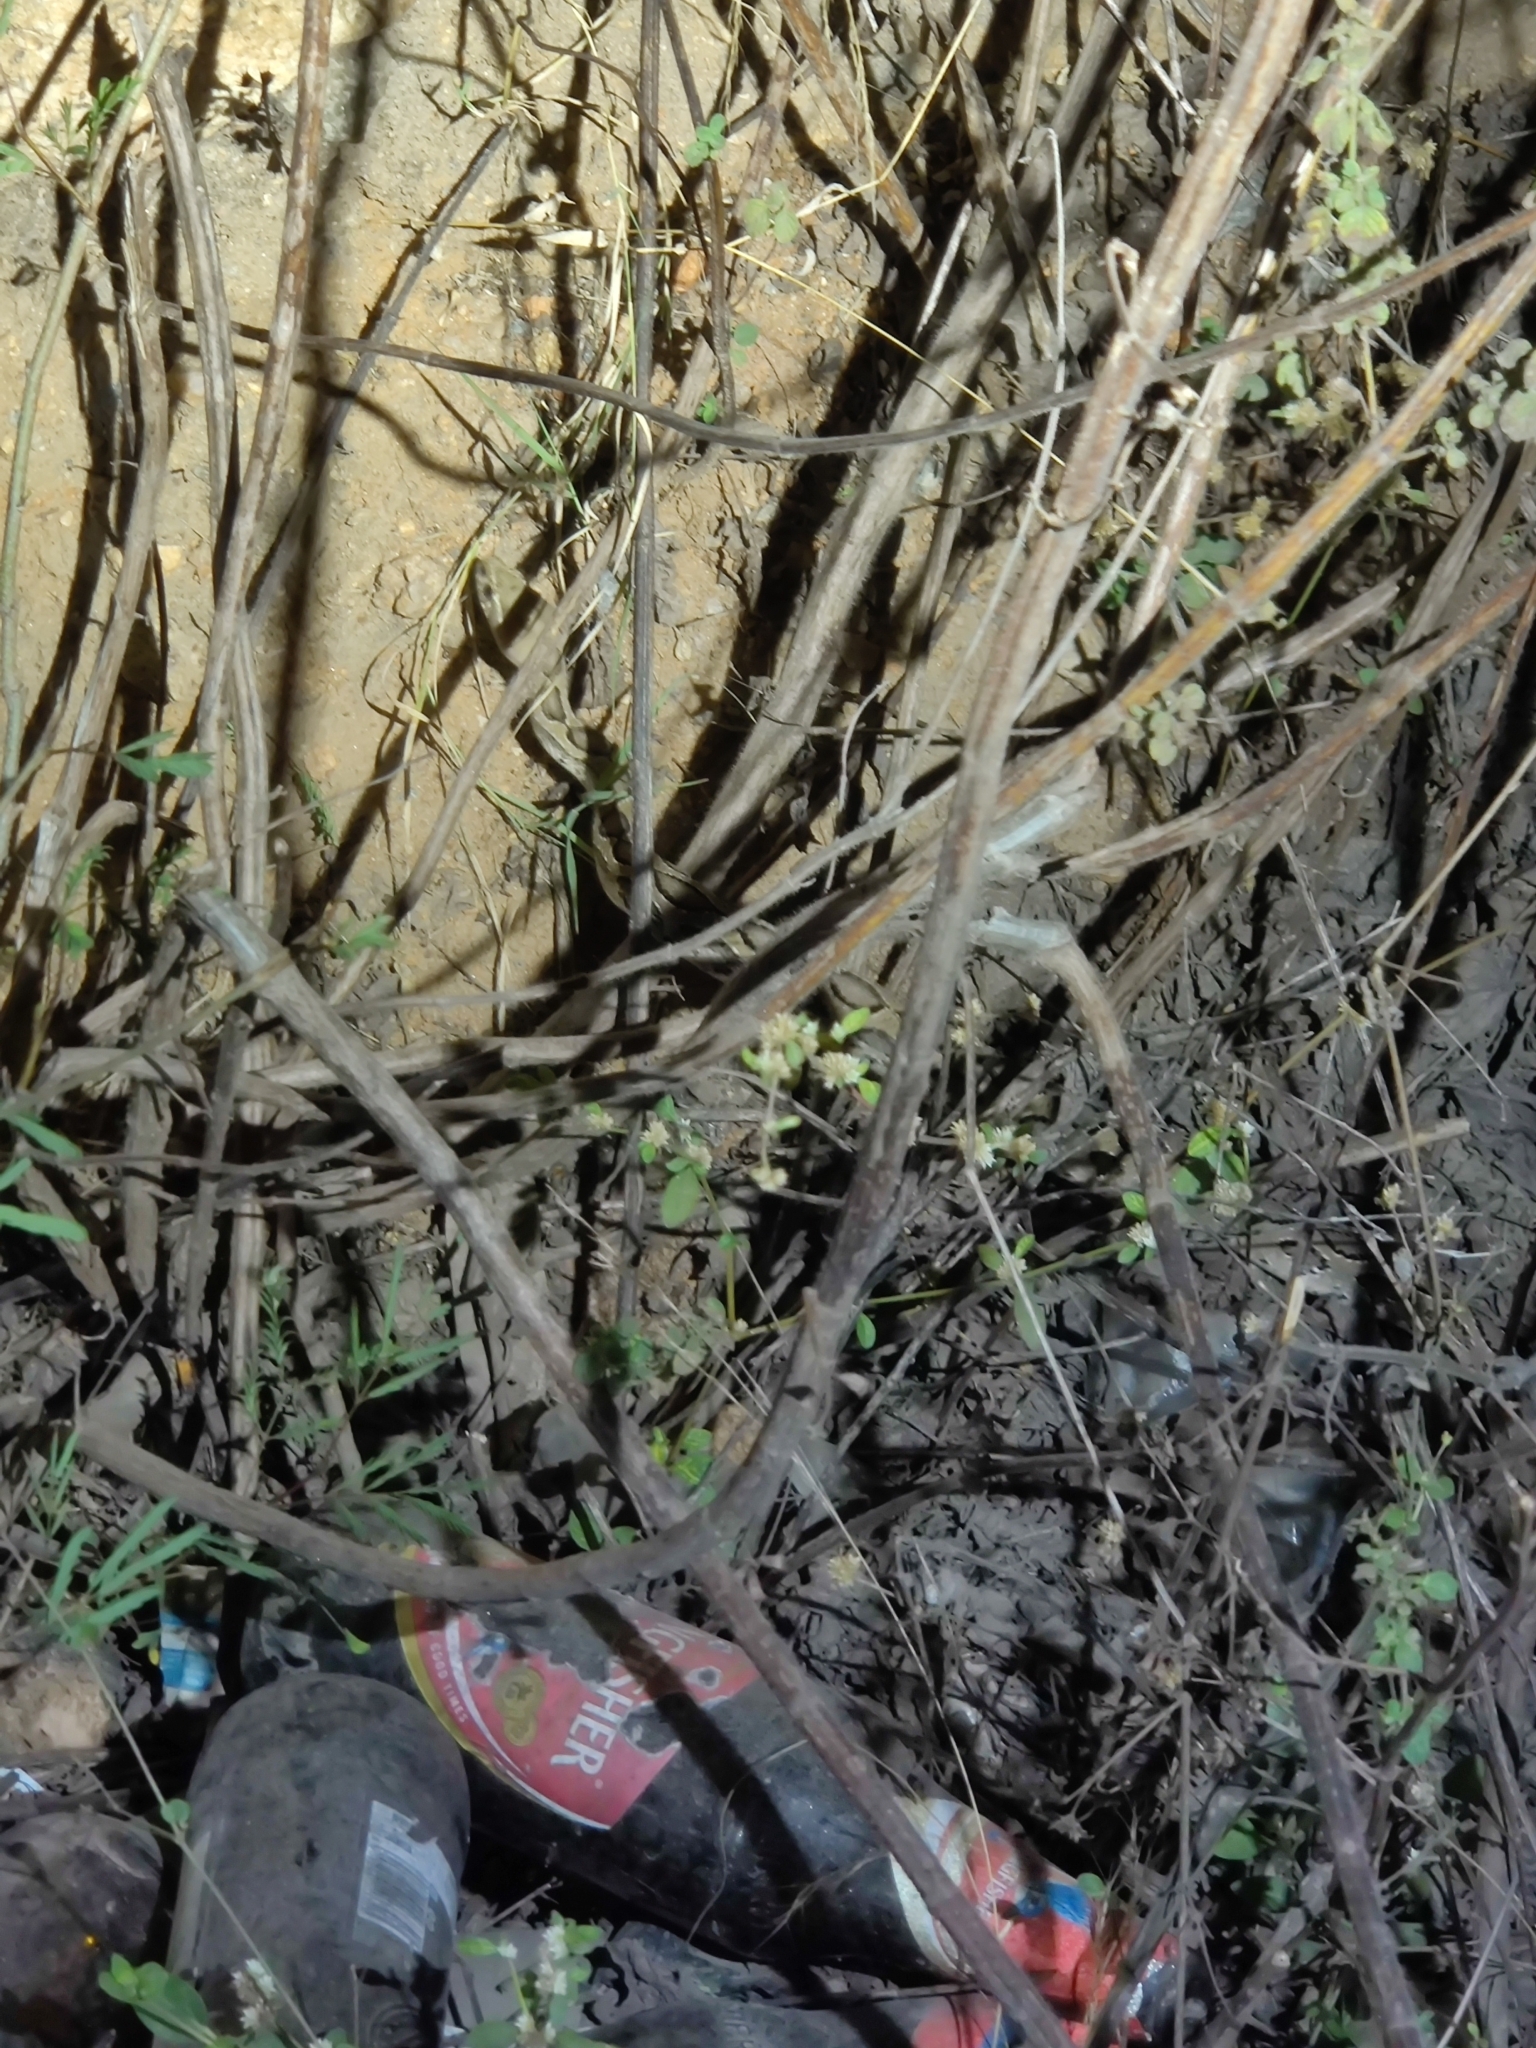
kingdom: Animalia
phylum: Chordata
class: Squamata
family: Viperidae
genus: Daboia
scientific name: Daboia russelii
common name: Western russel’s viper
